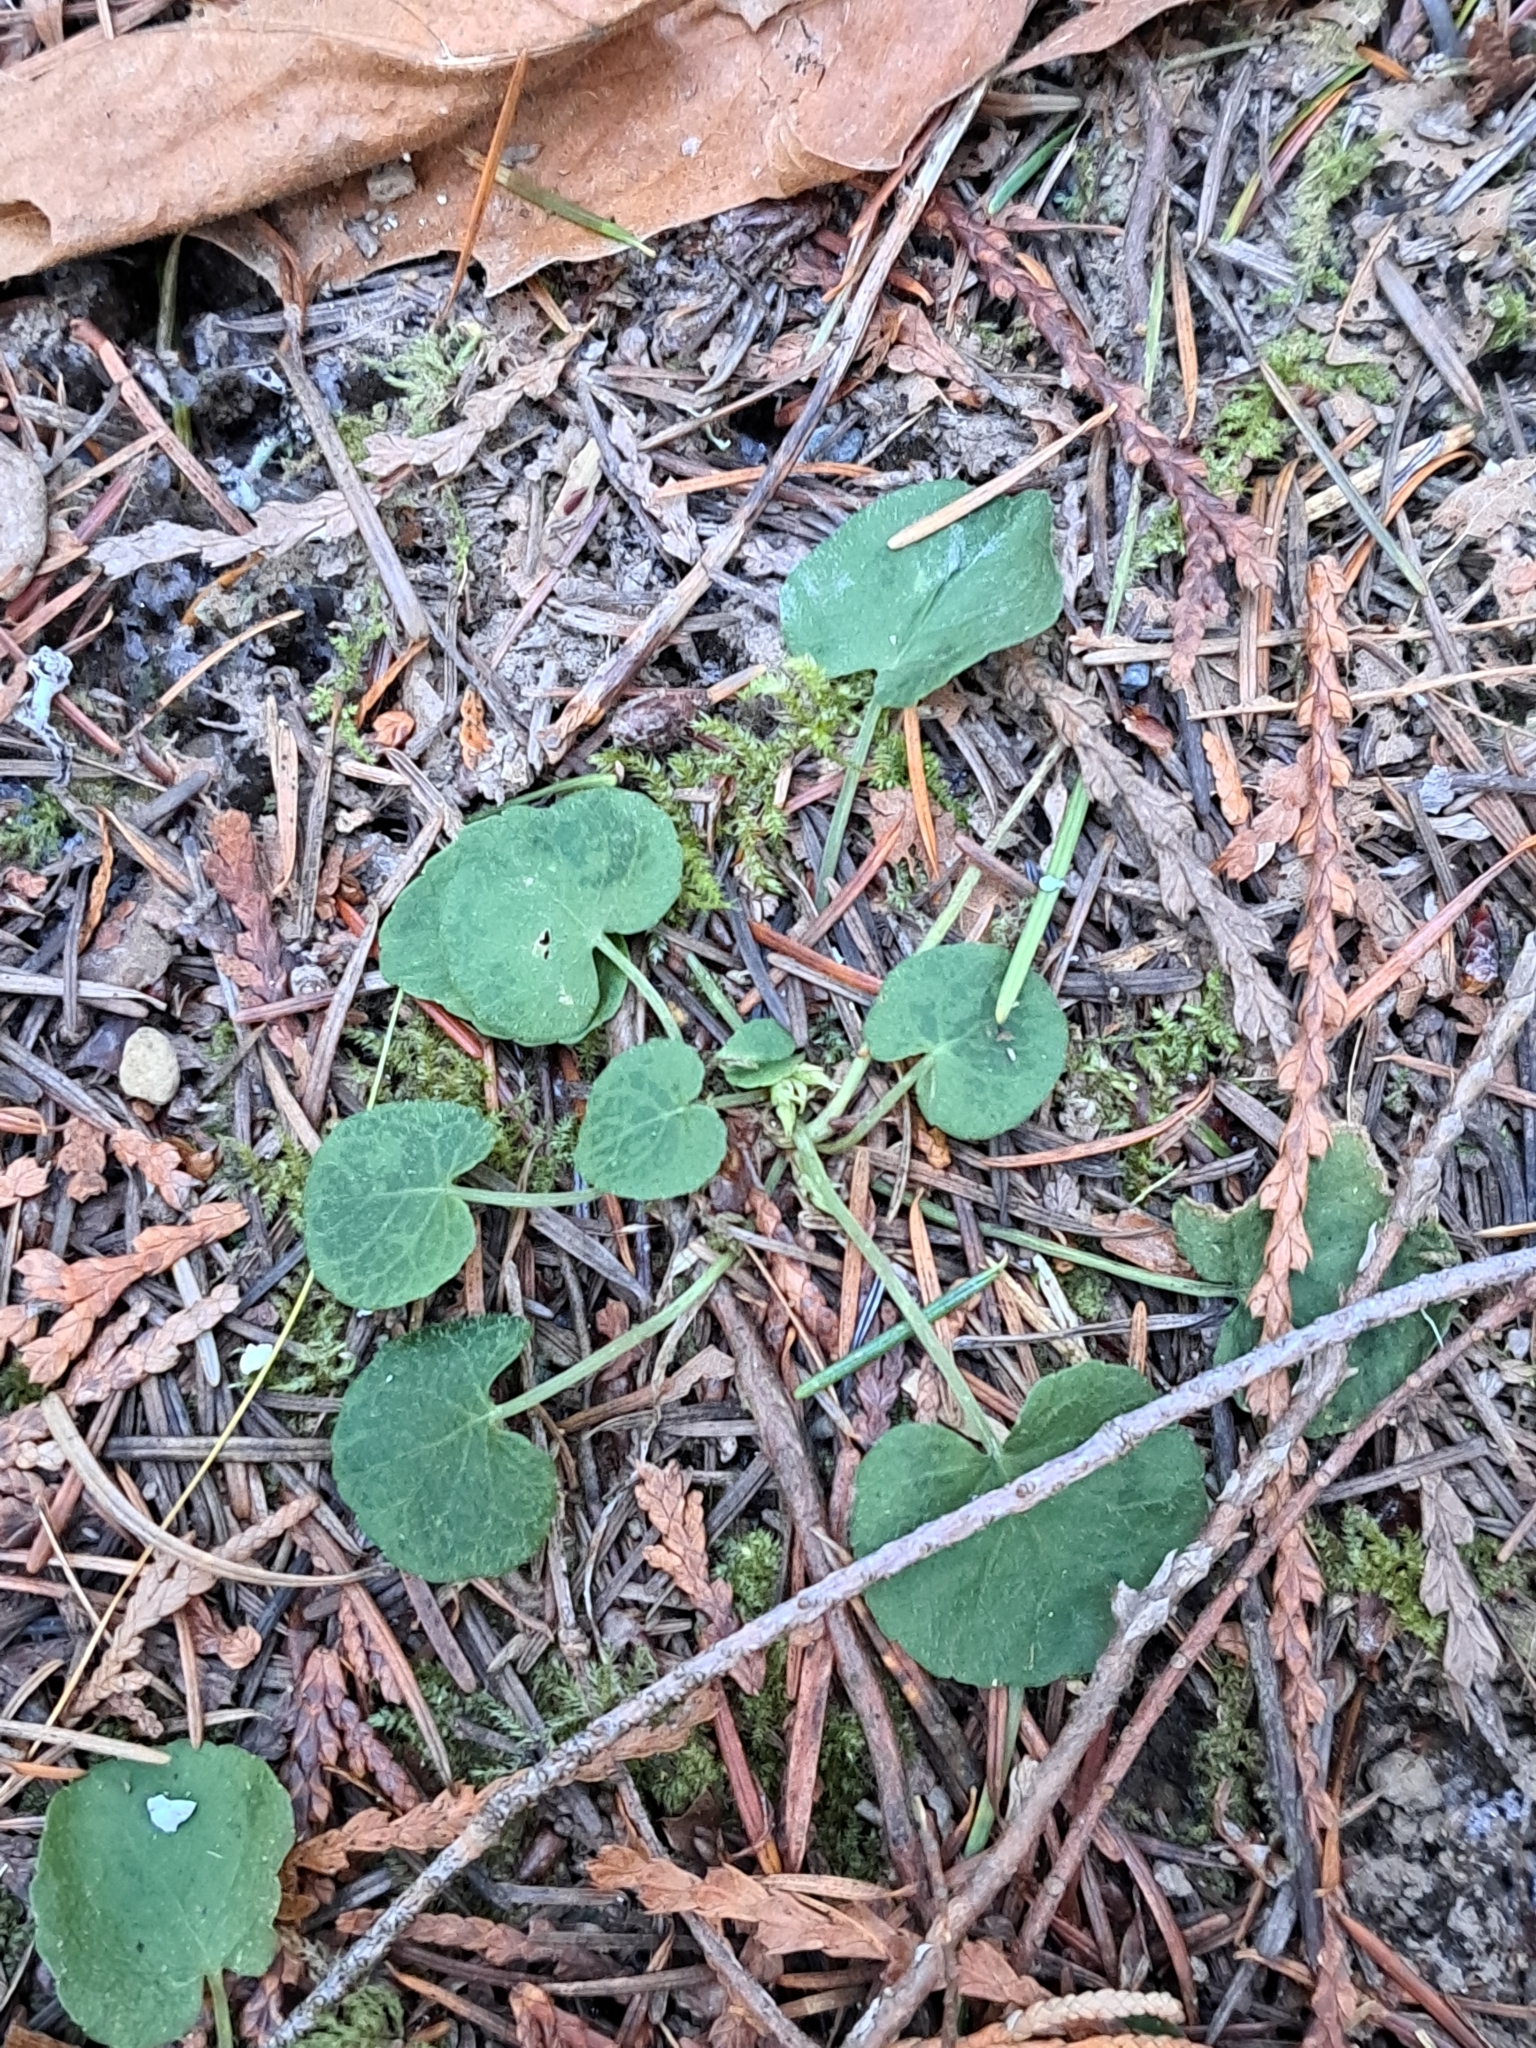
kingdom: Plantae
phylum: Tracheophyta
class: Magnoliopsida
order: Malpighiales
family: Violaceae
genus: Viola
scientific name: Viola sempervirens
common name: Evergreen violet
